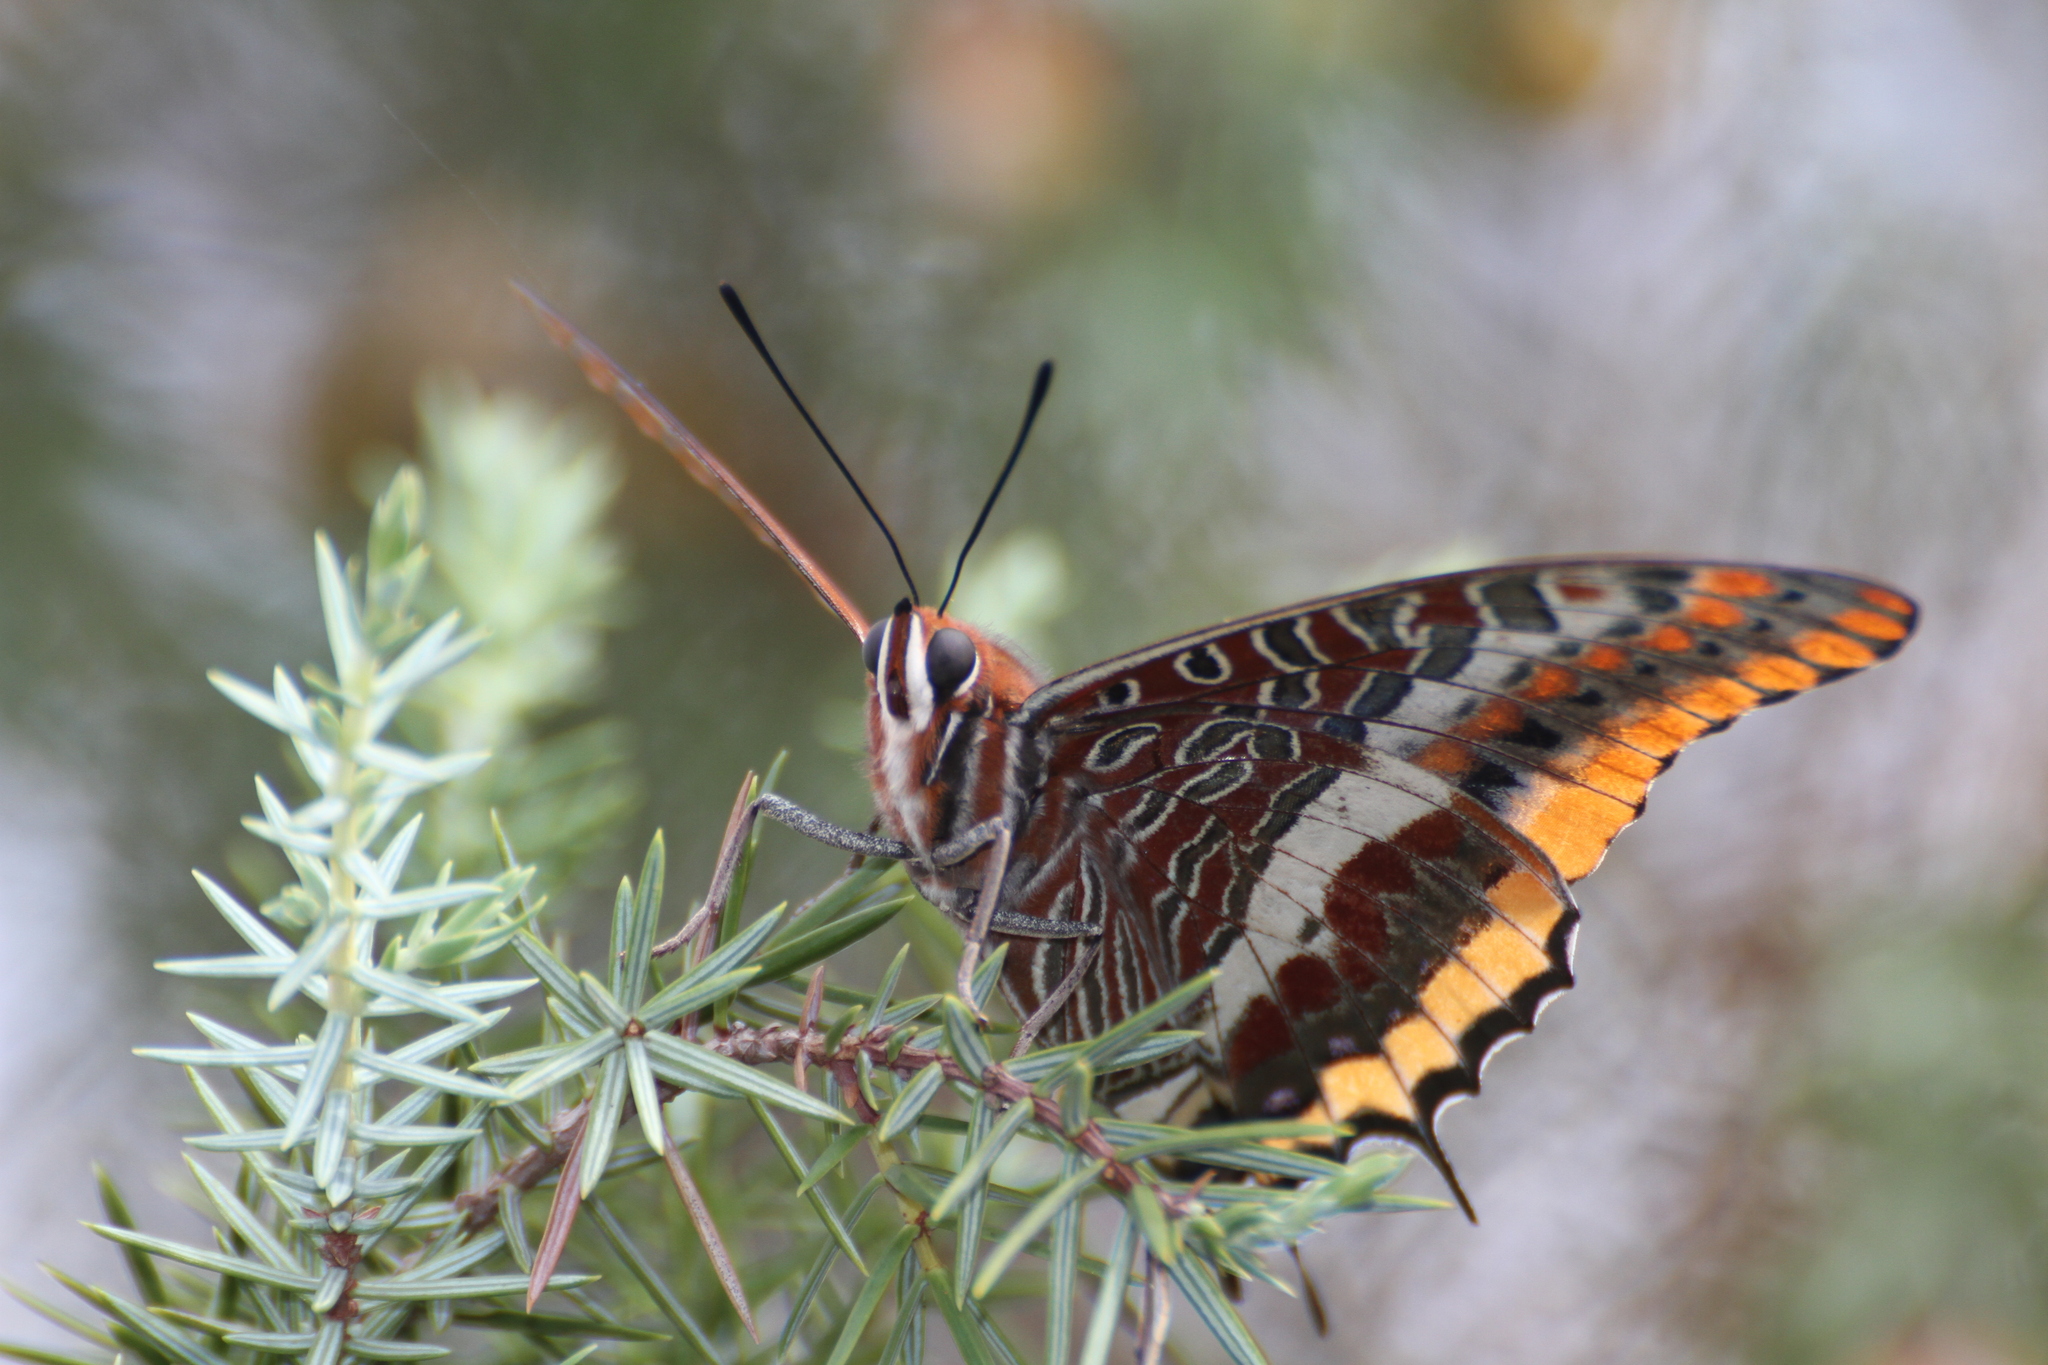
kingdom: Animalia
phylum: Arthropoda
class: Insecta
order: Lepidoptera
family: Nymphalidae
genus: Charaxes
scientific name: Charaxes jasius
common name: Two tailed pasha
